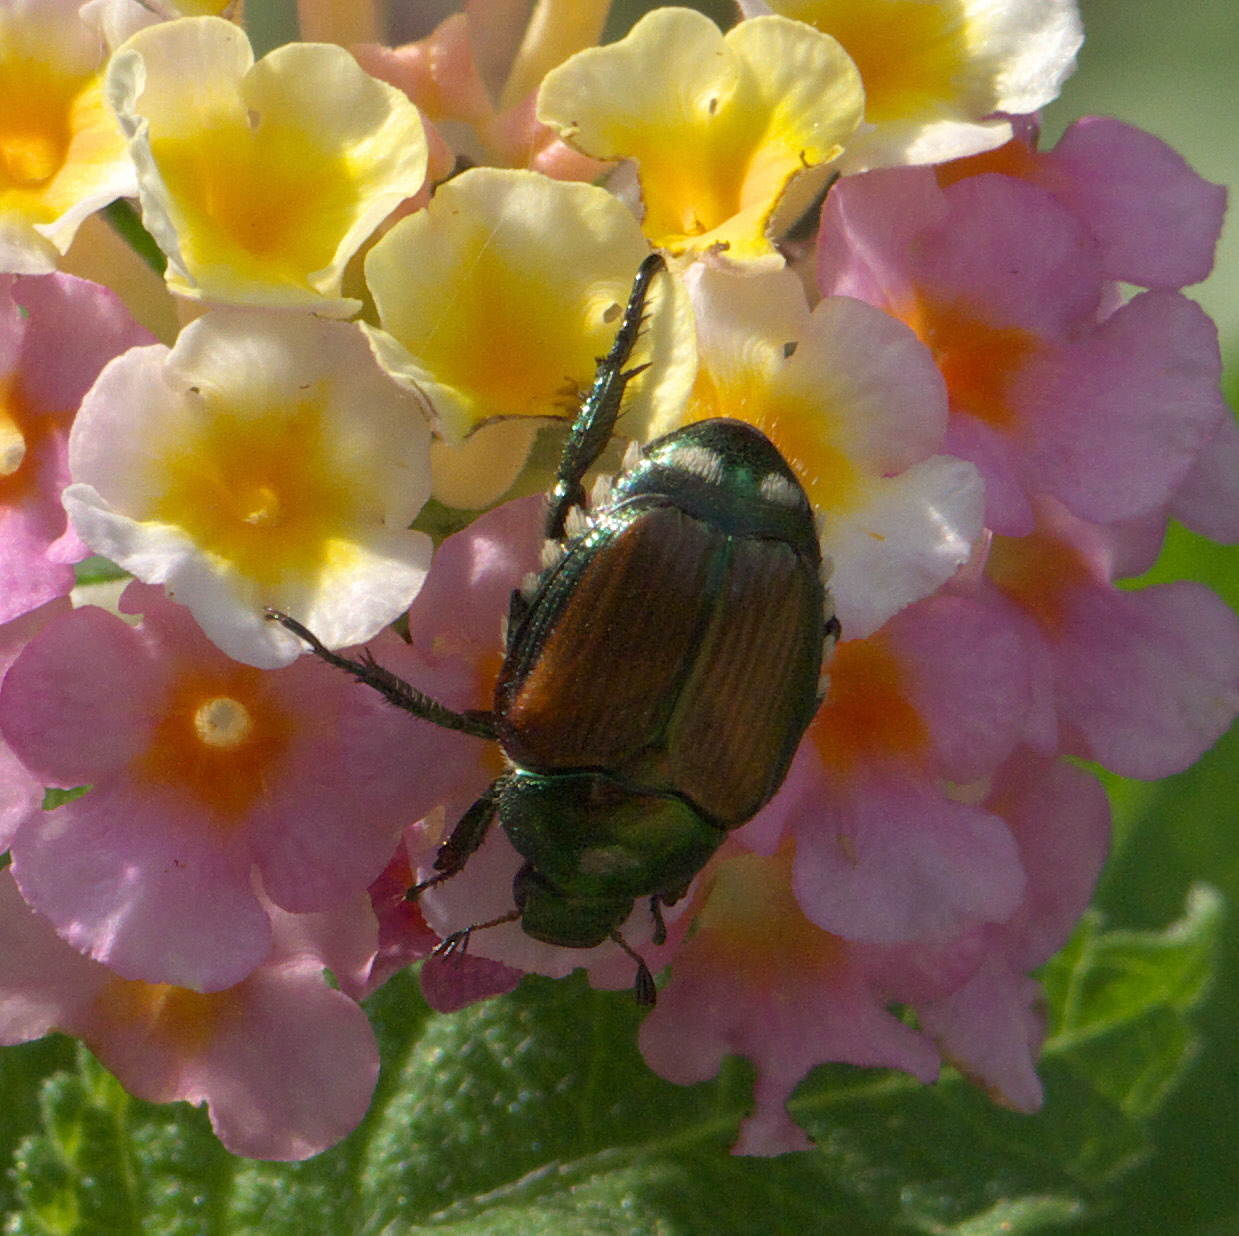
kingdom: Animalia
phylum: Arthropoda
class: Insecta
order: Coleoptera
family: Scarabaeidae
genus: Popillia
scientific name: Popillia japonica
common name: Japanese beetle
